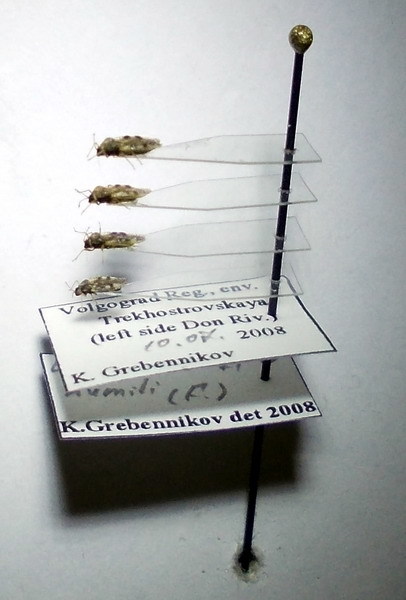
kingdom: Animalia
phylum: Arthropoda
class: Insecta
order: Hemiptera
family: Tingidae
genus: Dictyla
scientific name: Dictyla humuli
